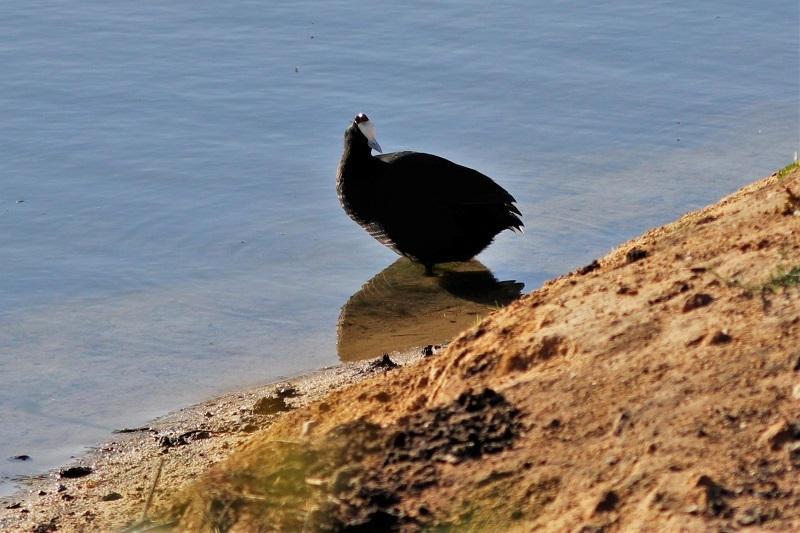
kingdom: Animalia
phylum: Chordata
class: Aves
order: Gruiformes
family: Rallidae
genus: Fulica
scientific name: Fulica cristata
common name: Red-knobbed coot
